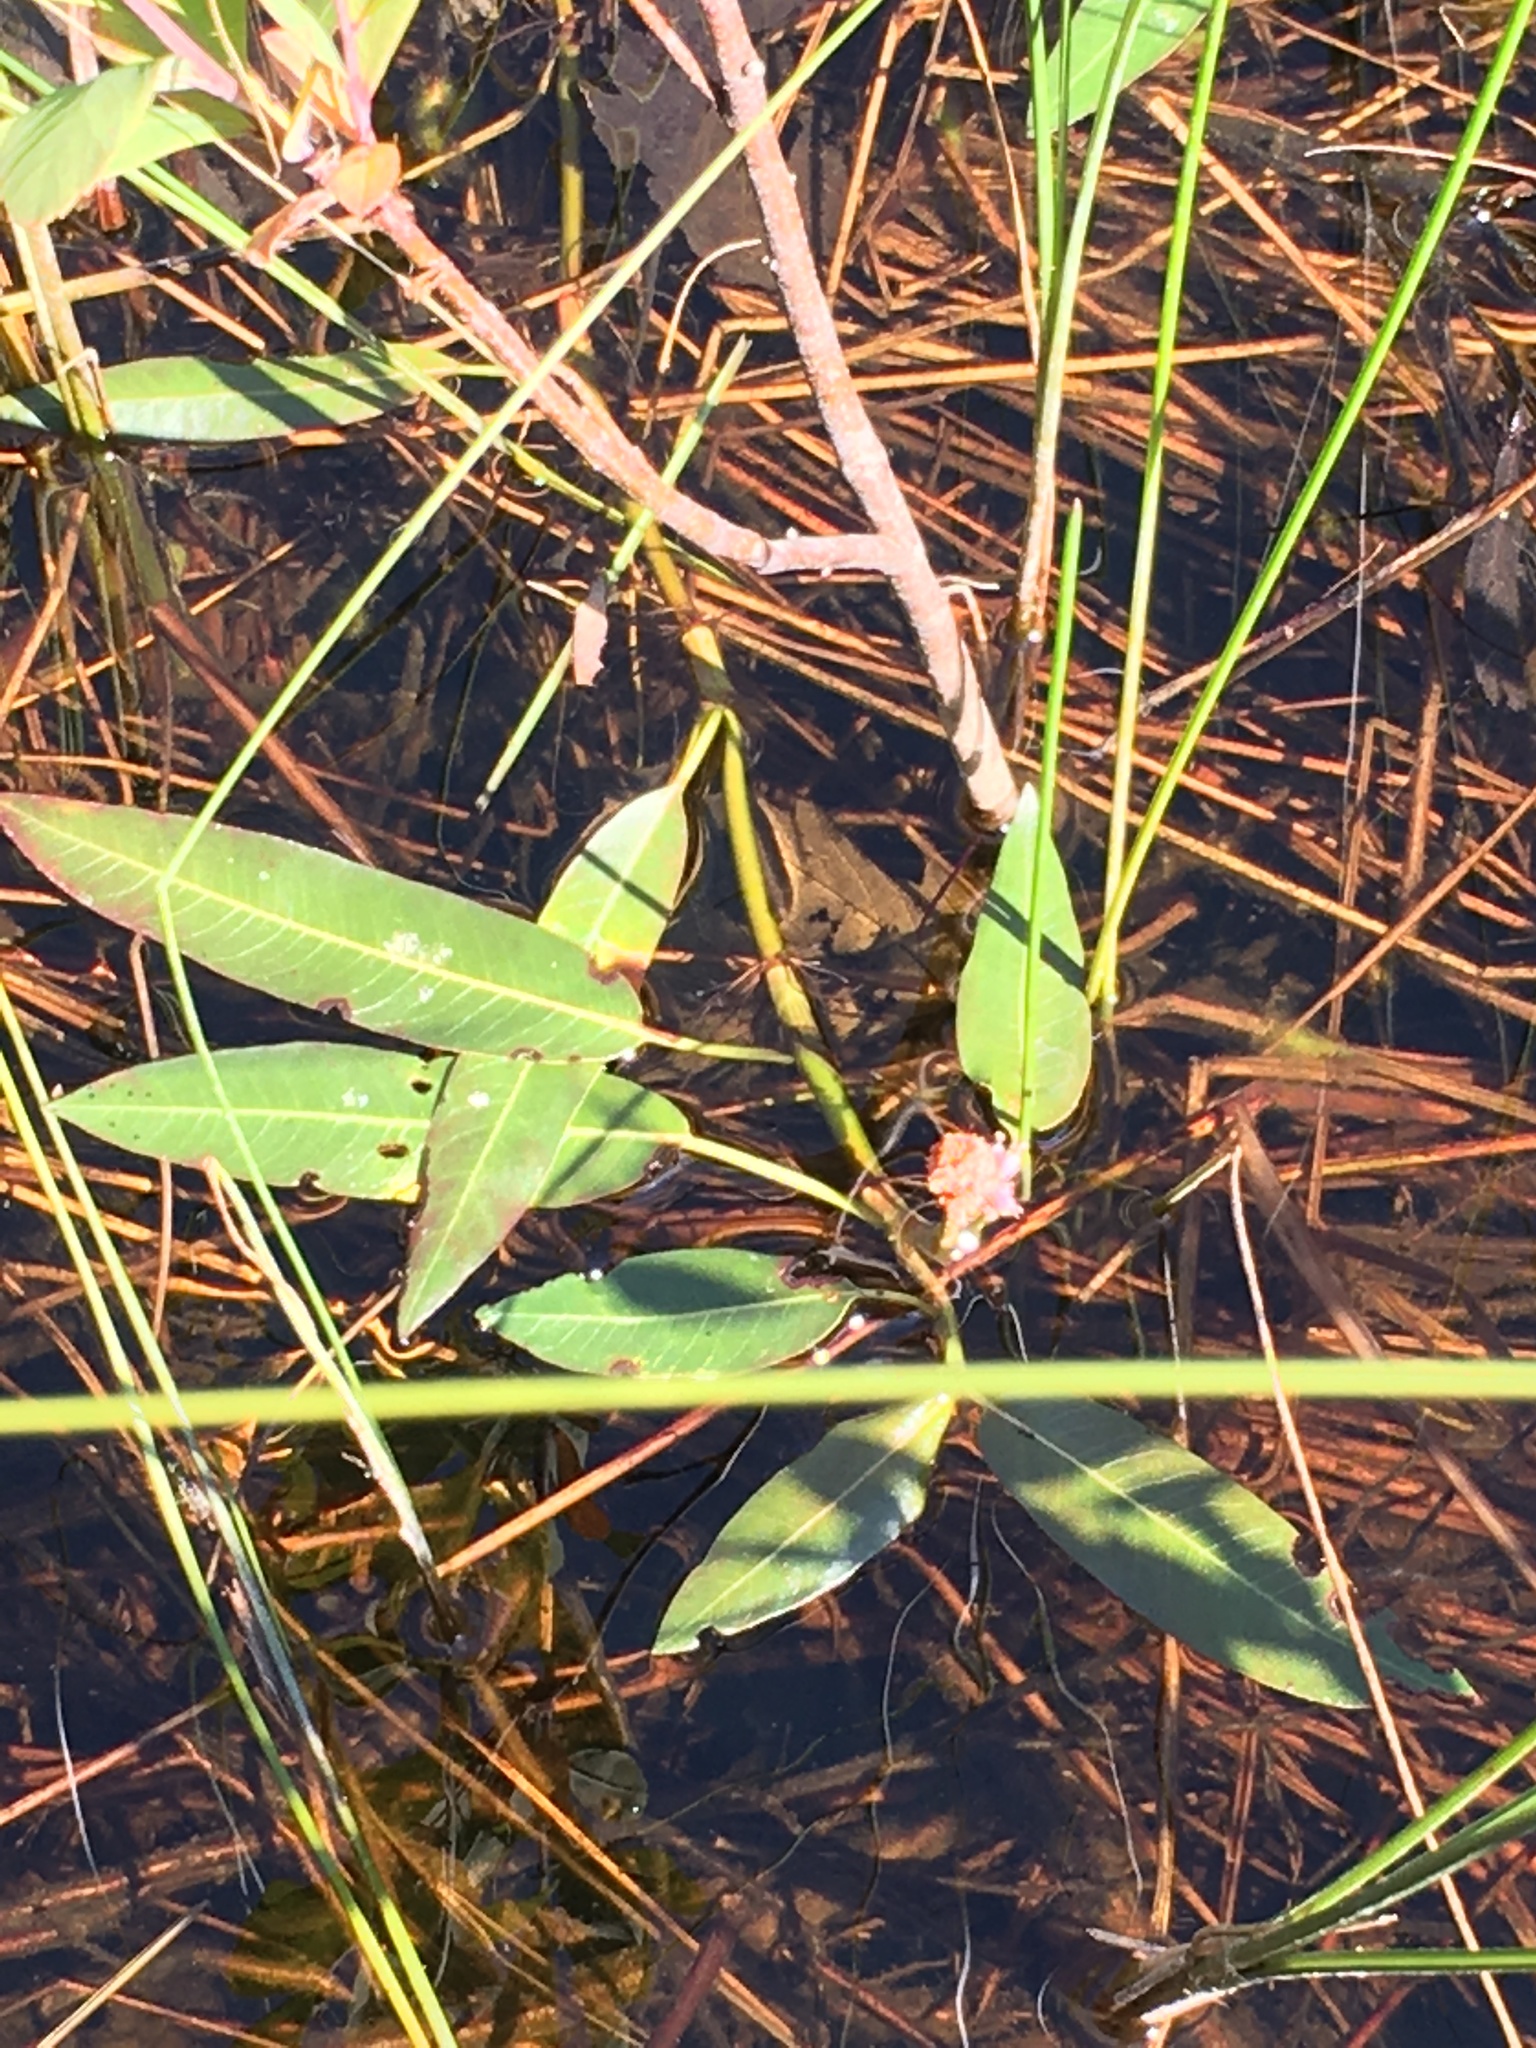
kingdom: Plantae
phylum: Tracheophyta
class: Magnoliopsida
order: Caryophyllales
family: Polygonaceae
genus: Persicaria
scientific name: Persicaria amphibia
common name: Amphibious bistort
